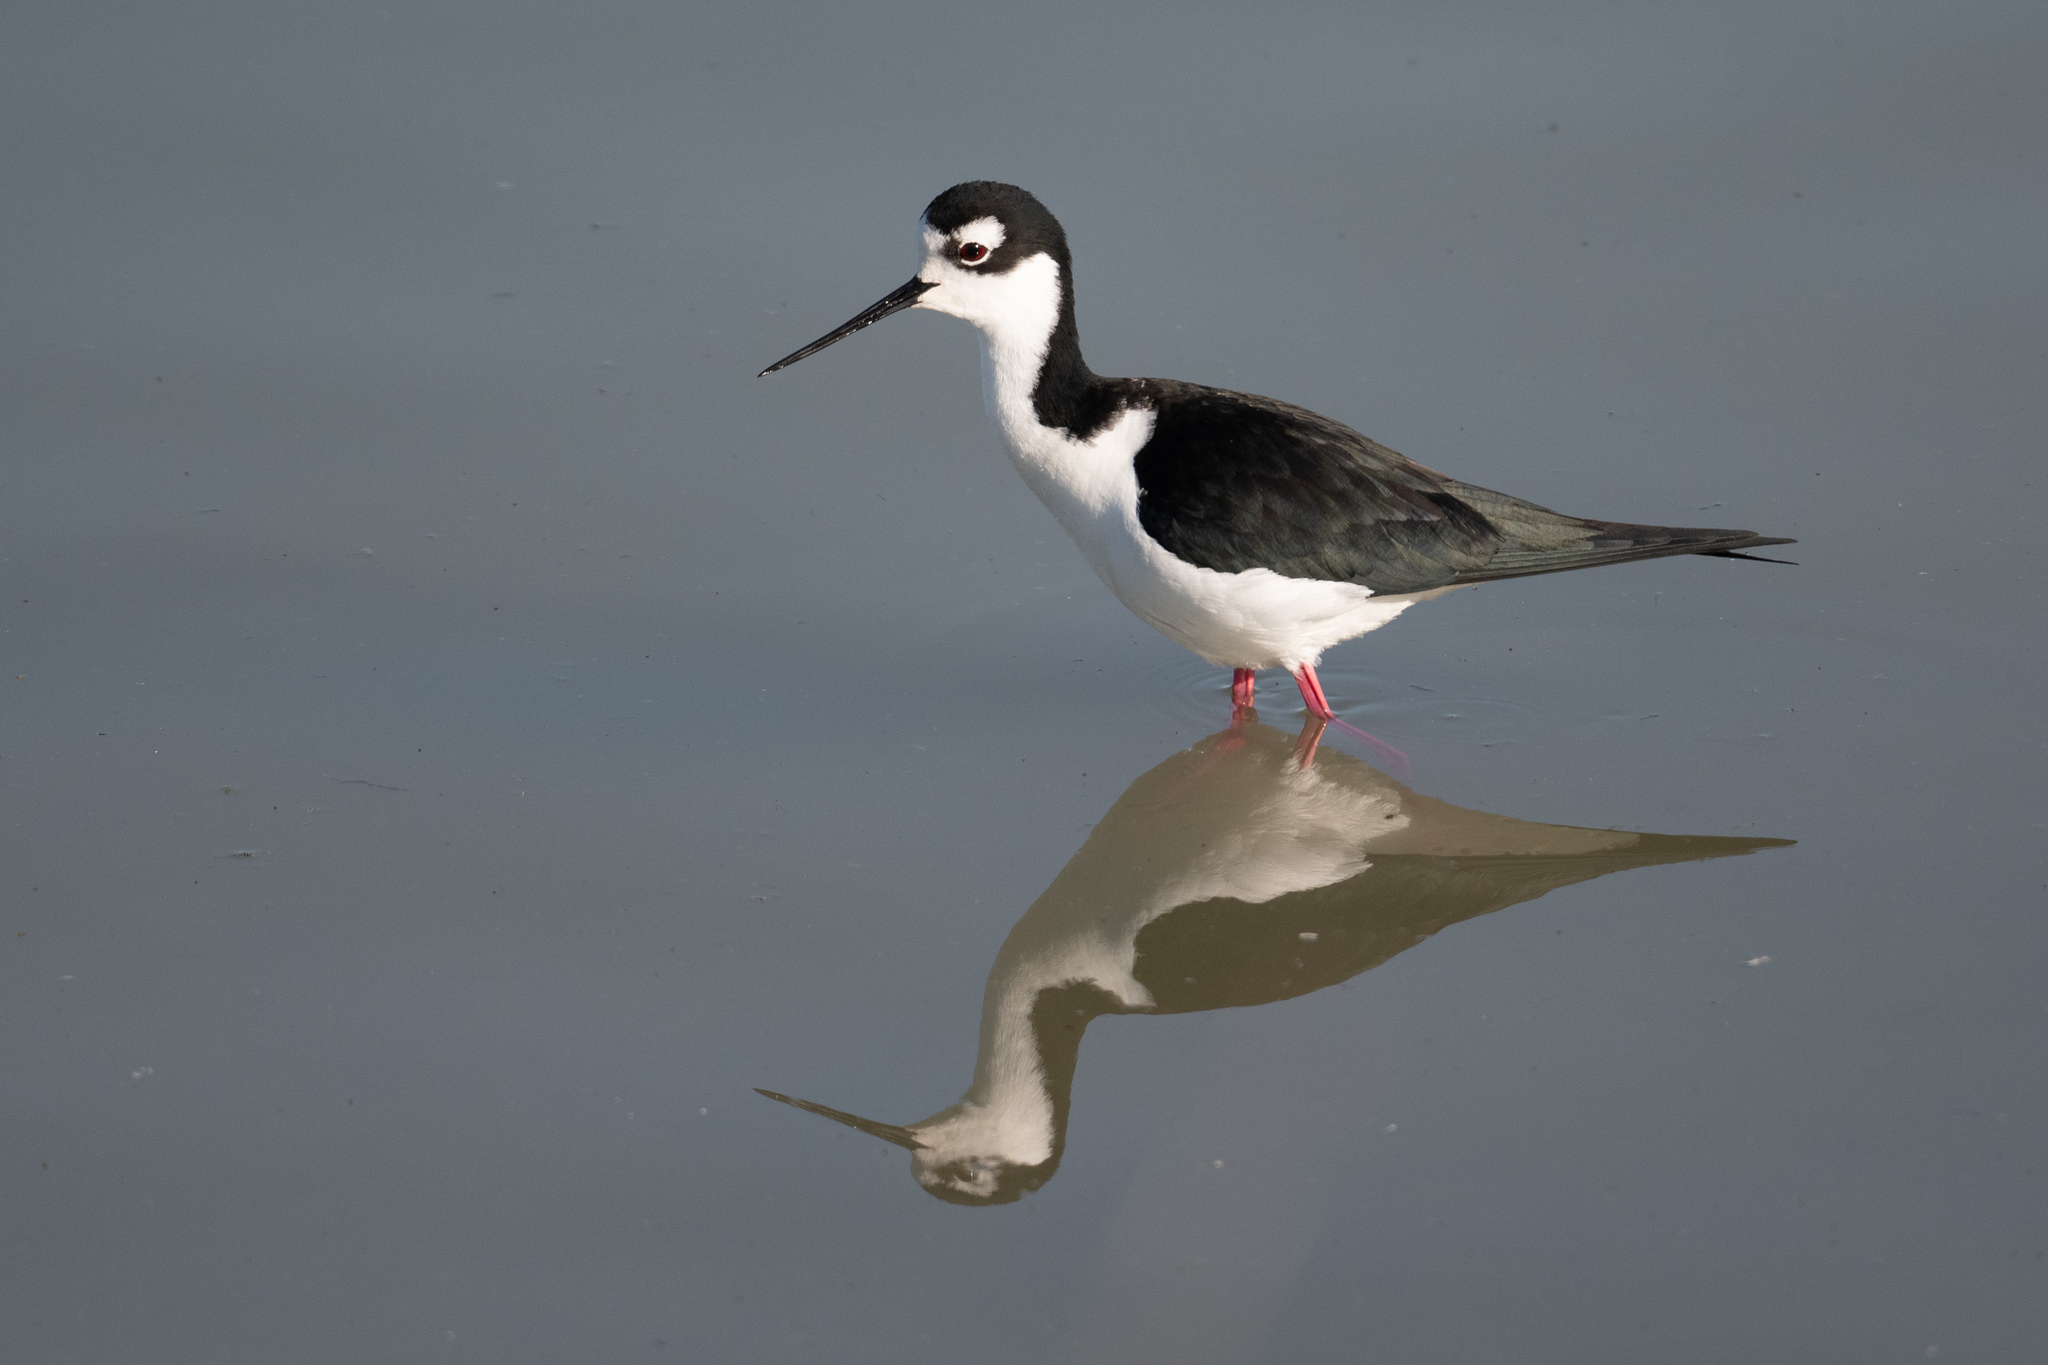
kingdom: Animalia
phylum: Chordata
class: Aves
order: Charadriiformes
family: Recurvirostridae
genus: Himantopus
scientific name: Himantopus mexicanus
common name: Black-necked stilt
